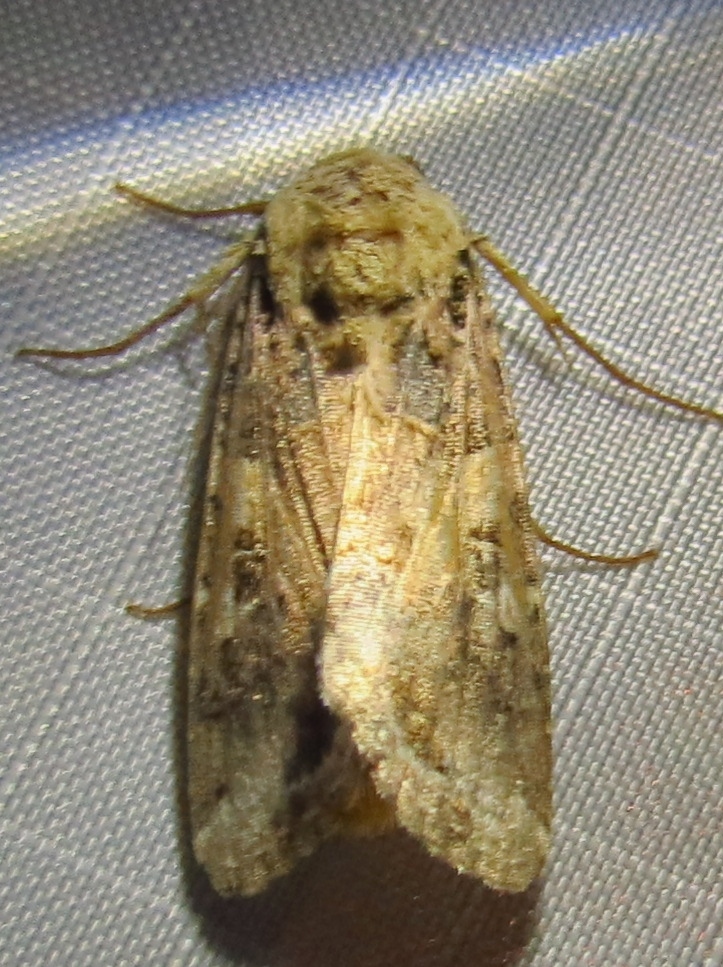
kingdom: Animalia
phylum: Arthropoda
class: Insecta
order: Lepidoptera
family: Noctuidae
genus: Spodoptera
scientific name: Spodoptera ornithogalli
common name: Yellow-striped armyworm
